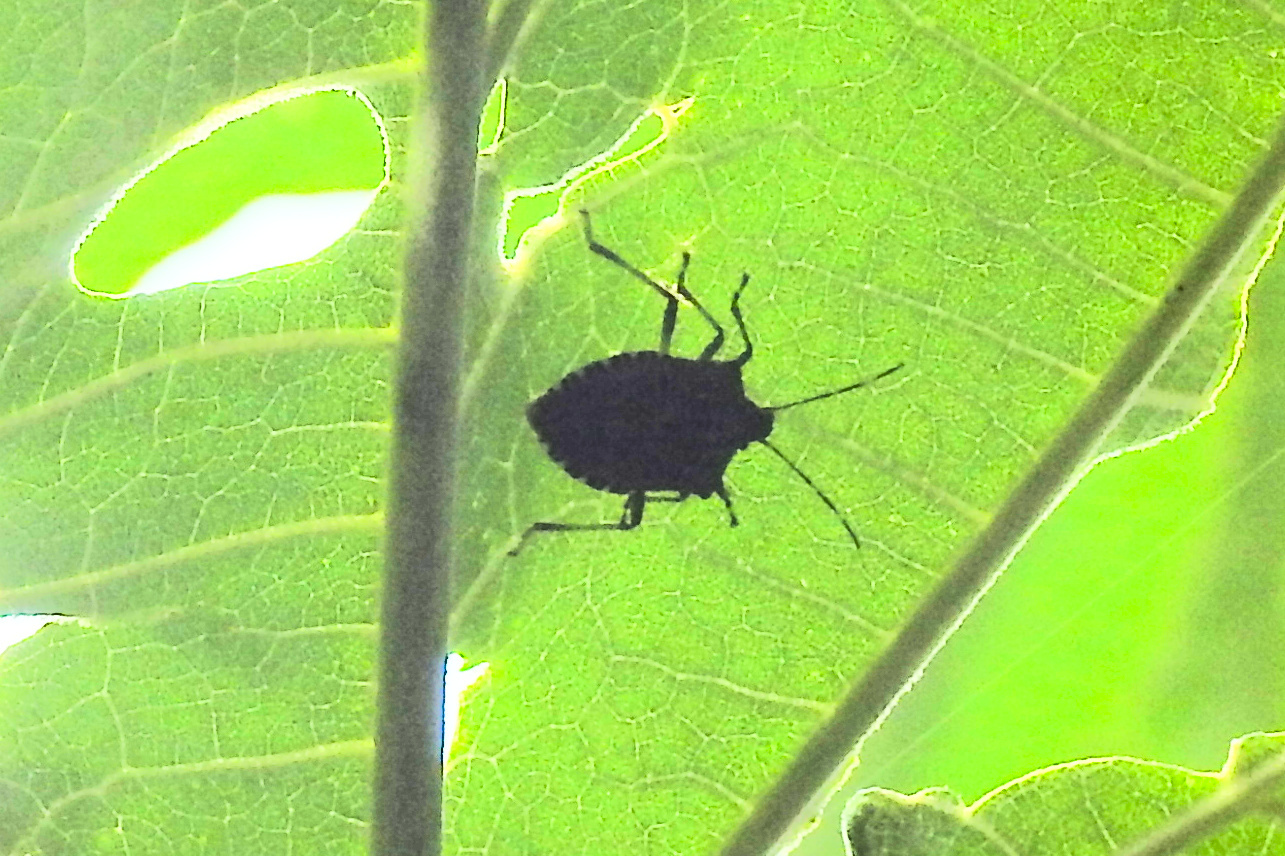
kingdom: Animalia
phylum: Arthropoda
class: Insecta
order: Hemiptera
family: Pentatomidae
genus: Halyomorpha
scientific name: Halyomorpha halys
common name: Brown marmorated stink bug
